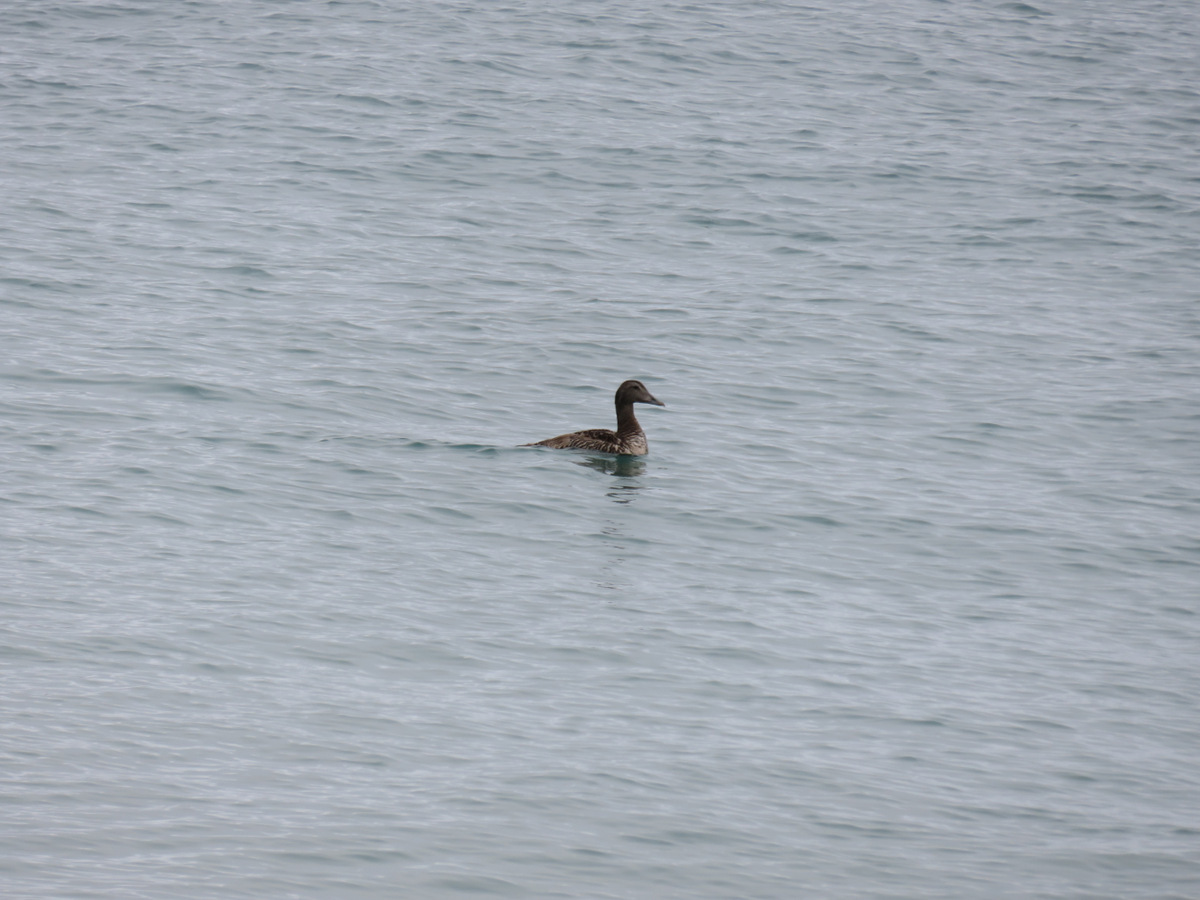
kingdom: Animalia
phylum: Chordata
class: Aves
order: Anseriformes
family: Anatidae
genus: Somateria
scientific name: Somateria mollissima
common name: Common eider
